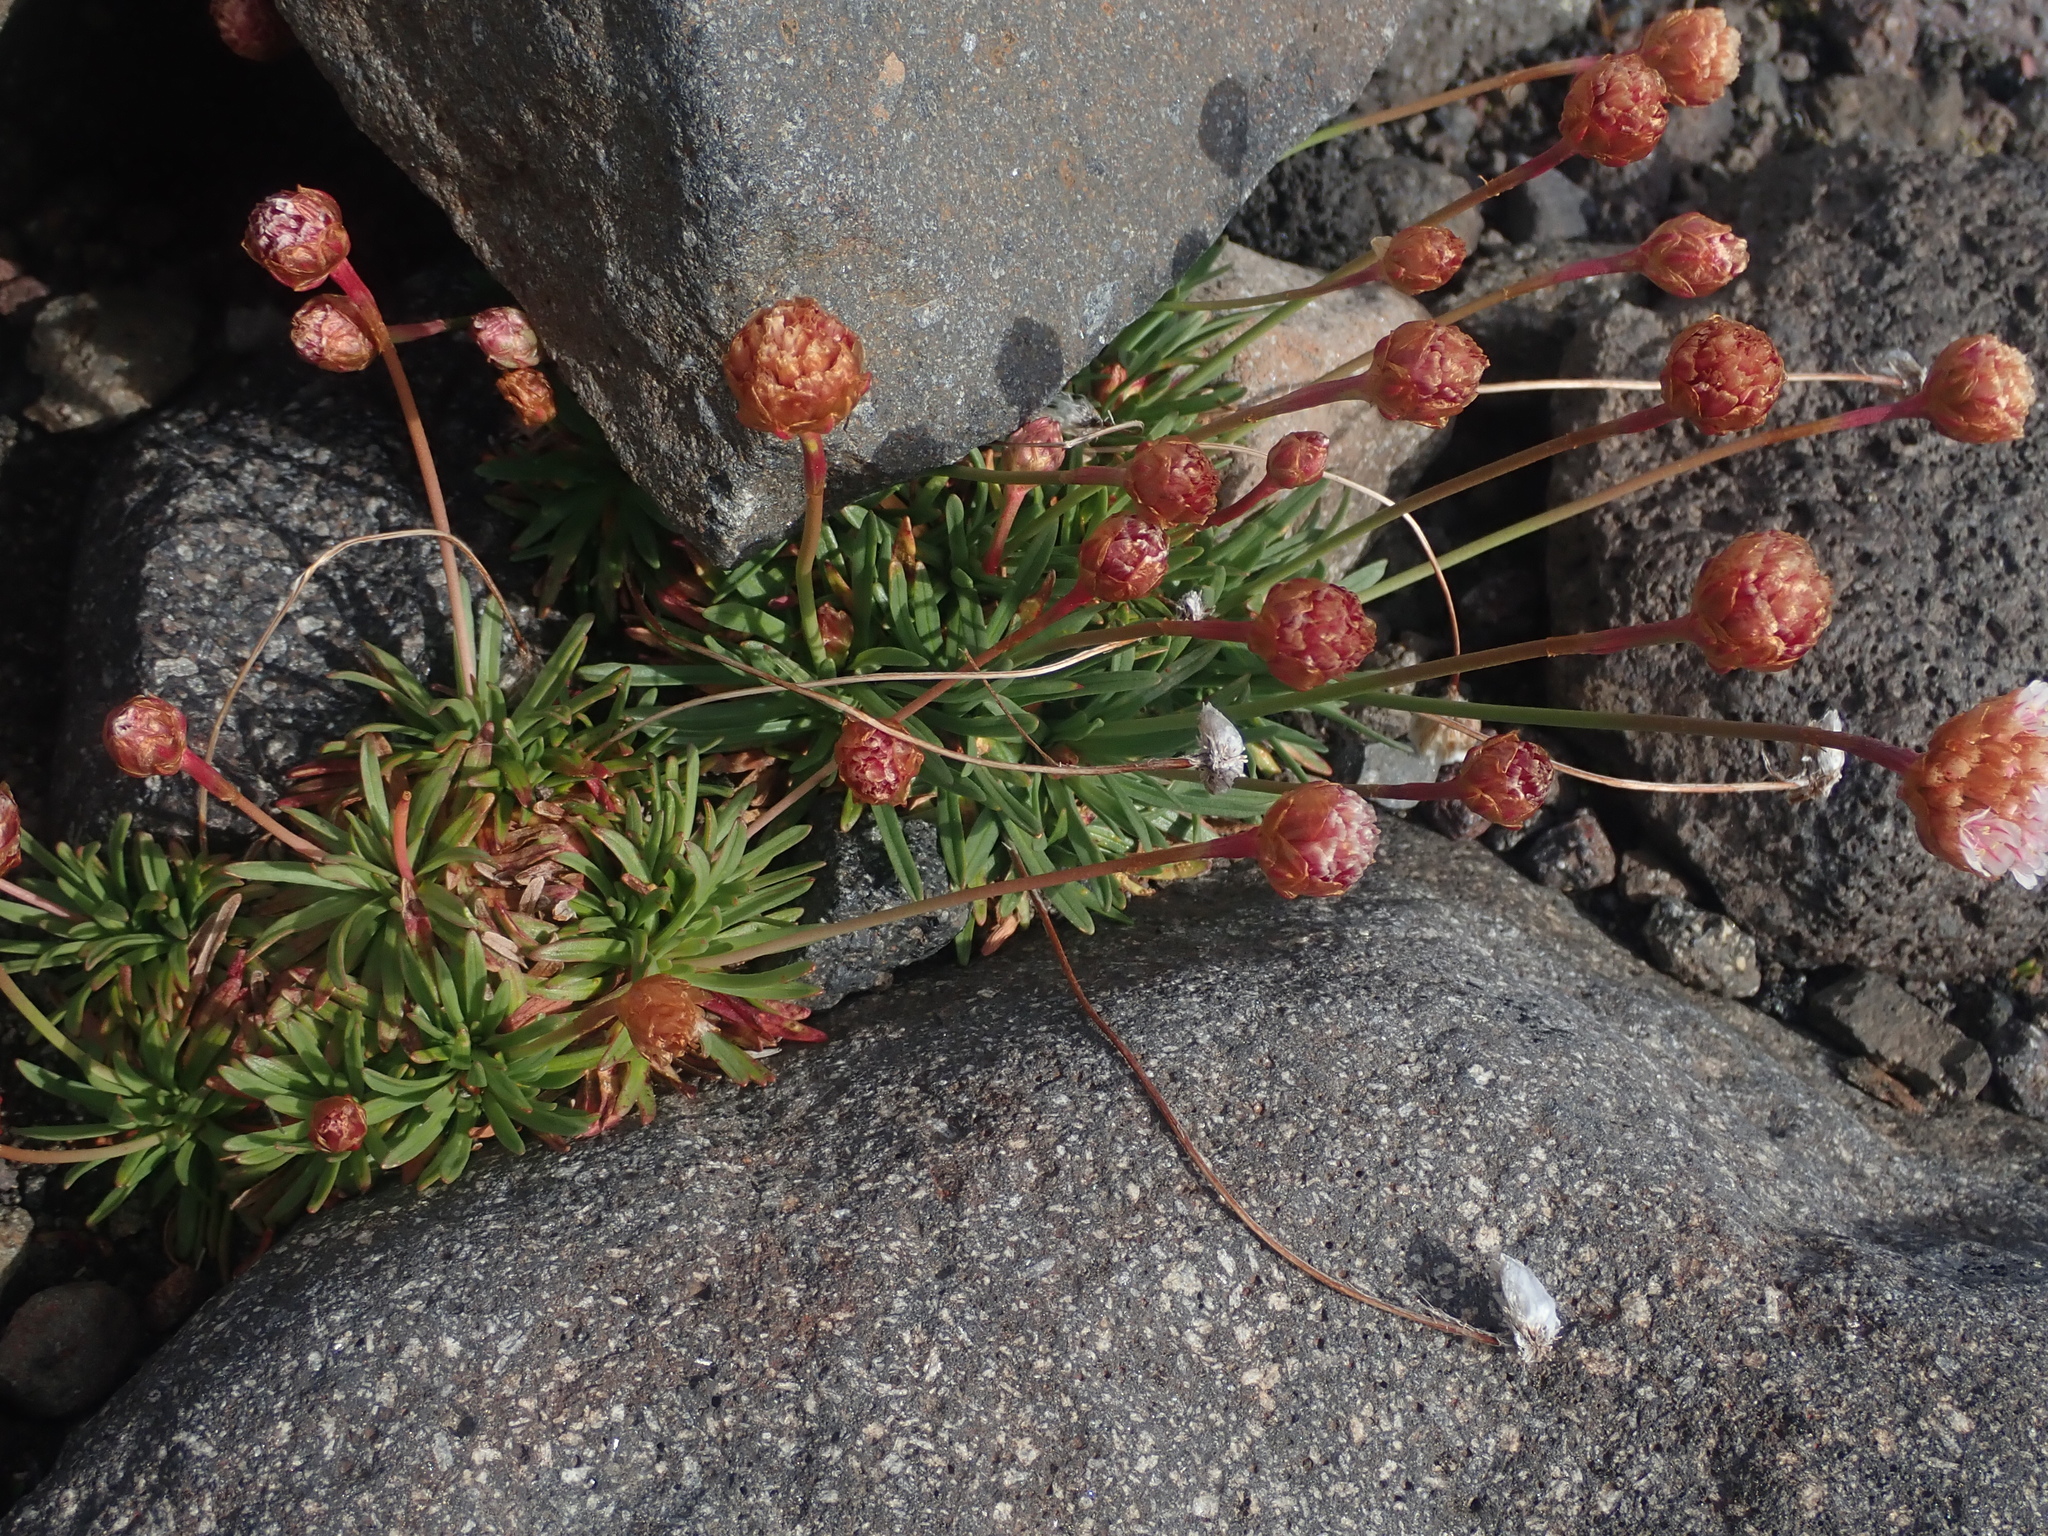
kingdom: Plantae
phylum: Tracheophyta
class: Magnoliopsida
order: Caryophyllales
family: Plumbaginaceae
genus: Armeria
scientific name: Armeria curvifolia
